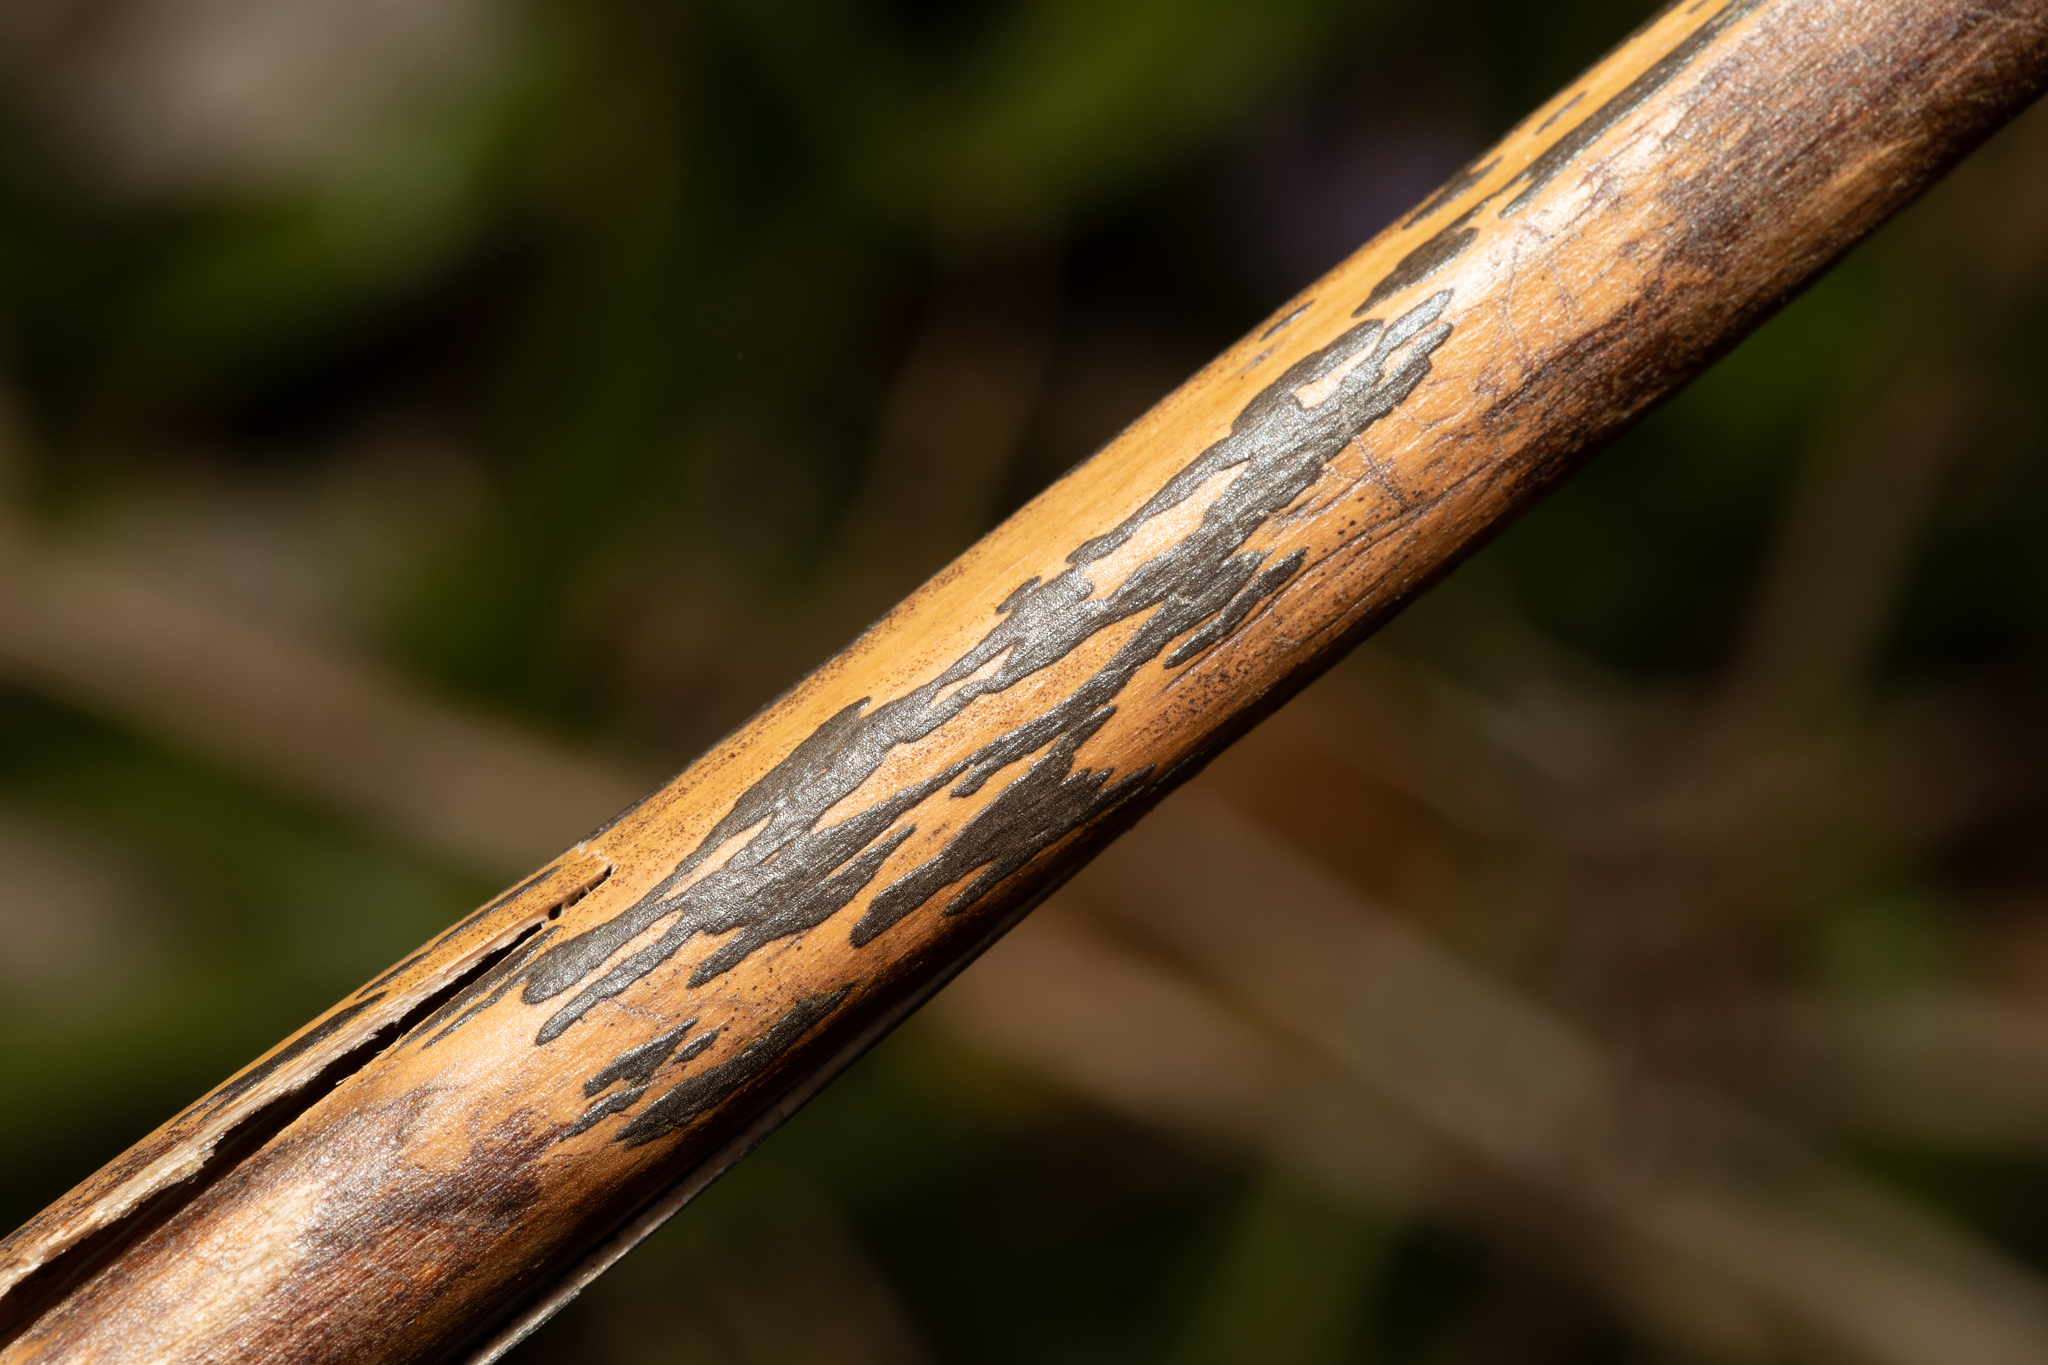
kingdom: Fungi
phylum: Ascomycota
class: Dothideomycetes
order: Pleosporales
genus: Rhopographus
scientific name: Rhopographus filicinus
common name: Bracken map
